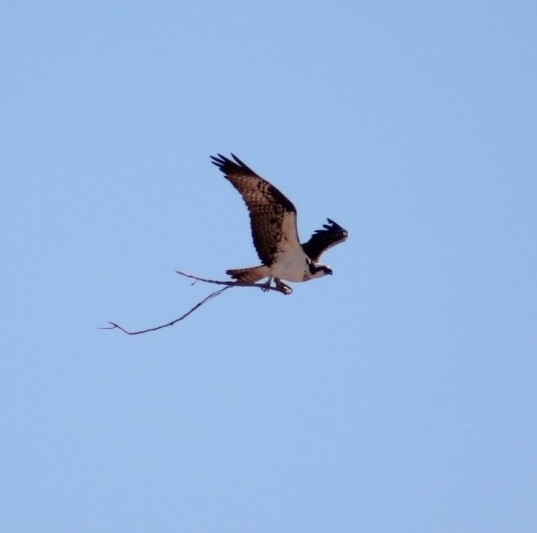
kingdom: Animalia
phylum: Chordata
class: Aves
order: Accipitriformes
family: Pandionidae
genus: Pandion
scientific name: Pandion haliaetus
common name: Osprey
